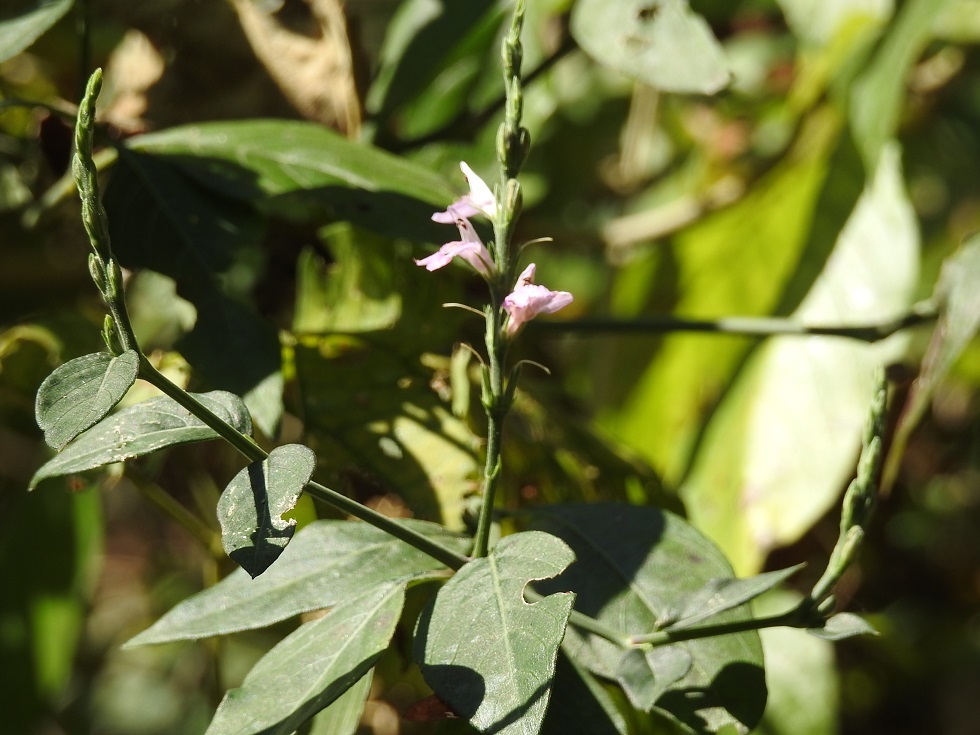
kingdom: Plantae
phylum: Tracheophyta
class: Magnoliopsida
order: Lamiales
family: Acanthaceae
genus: Dianthera
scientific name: Dianthera breviflora
